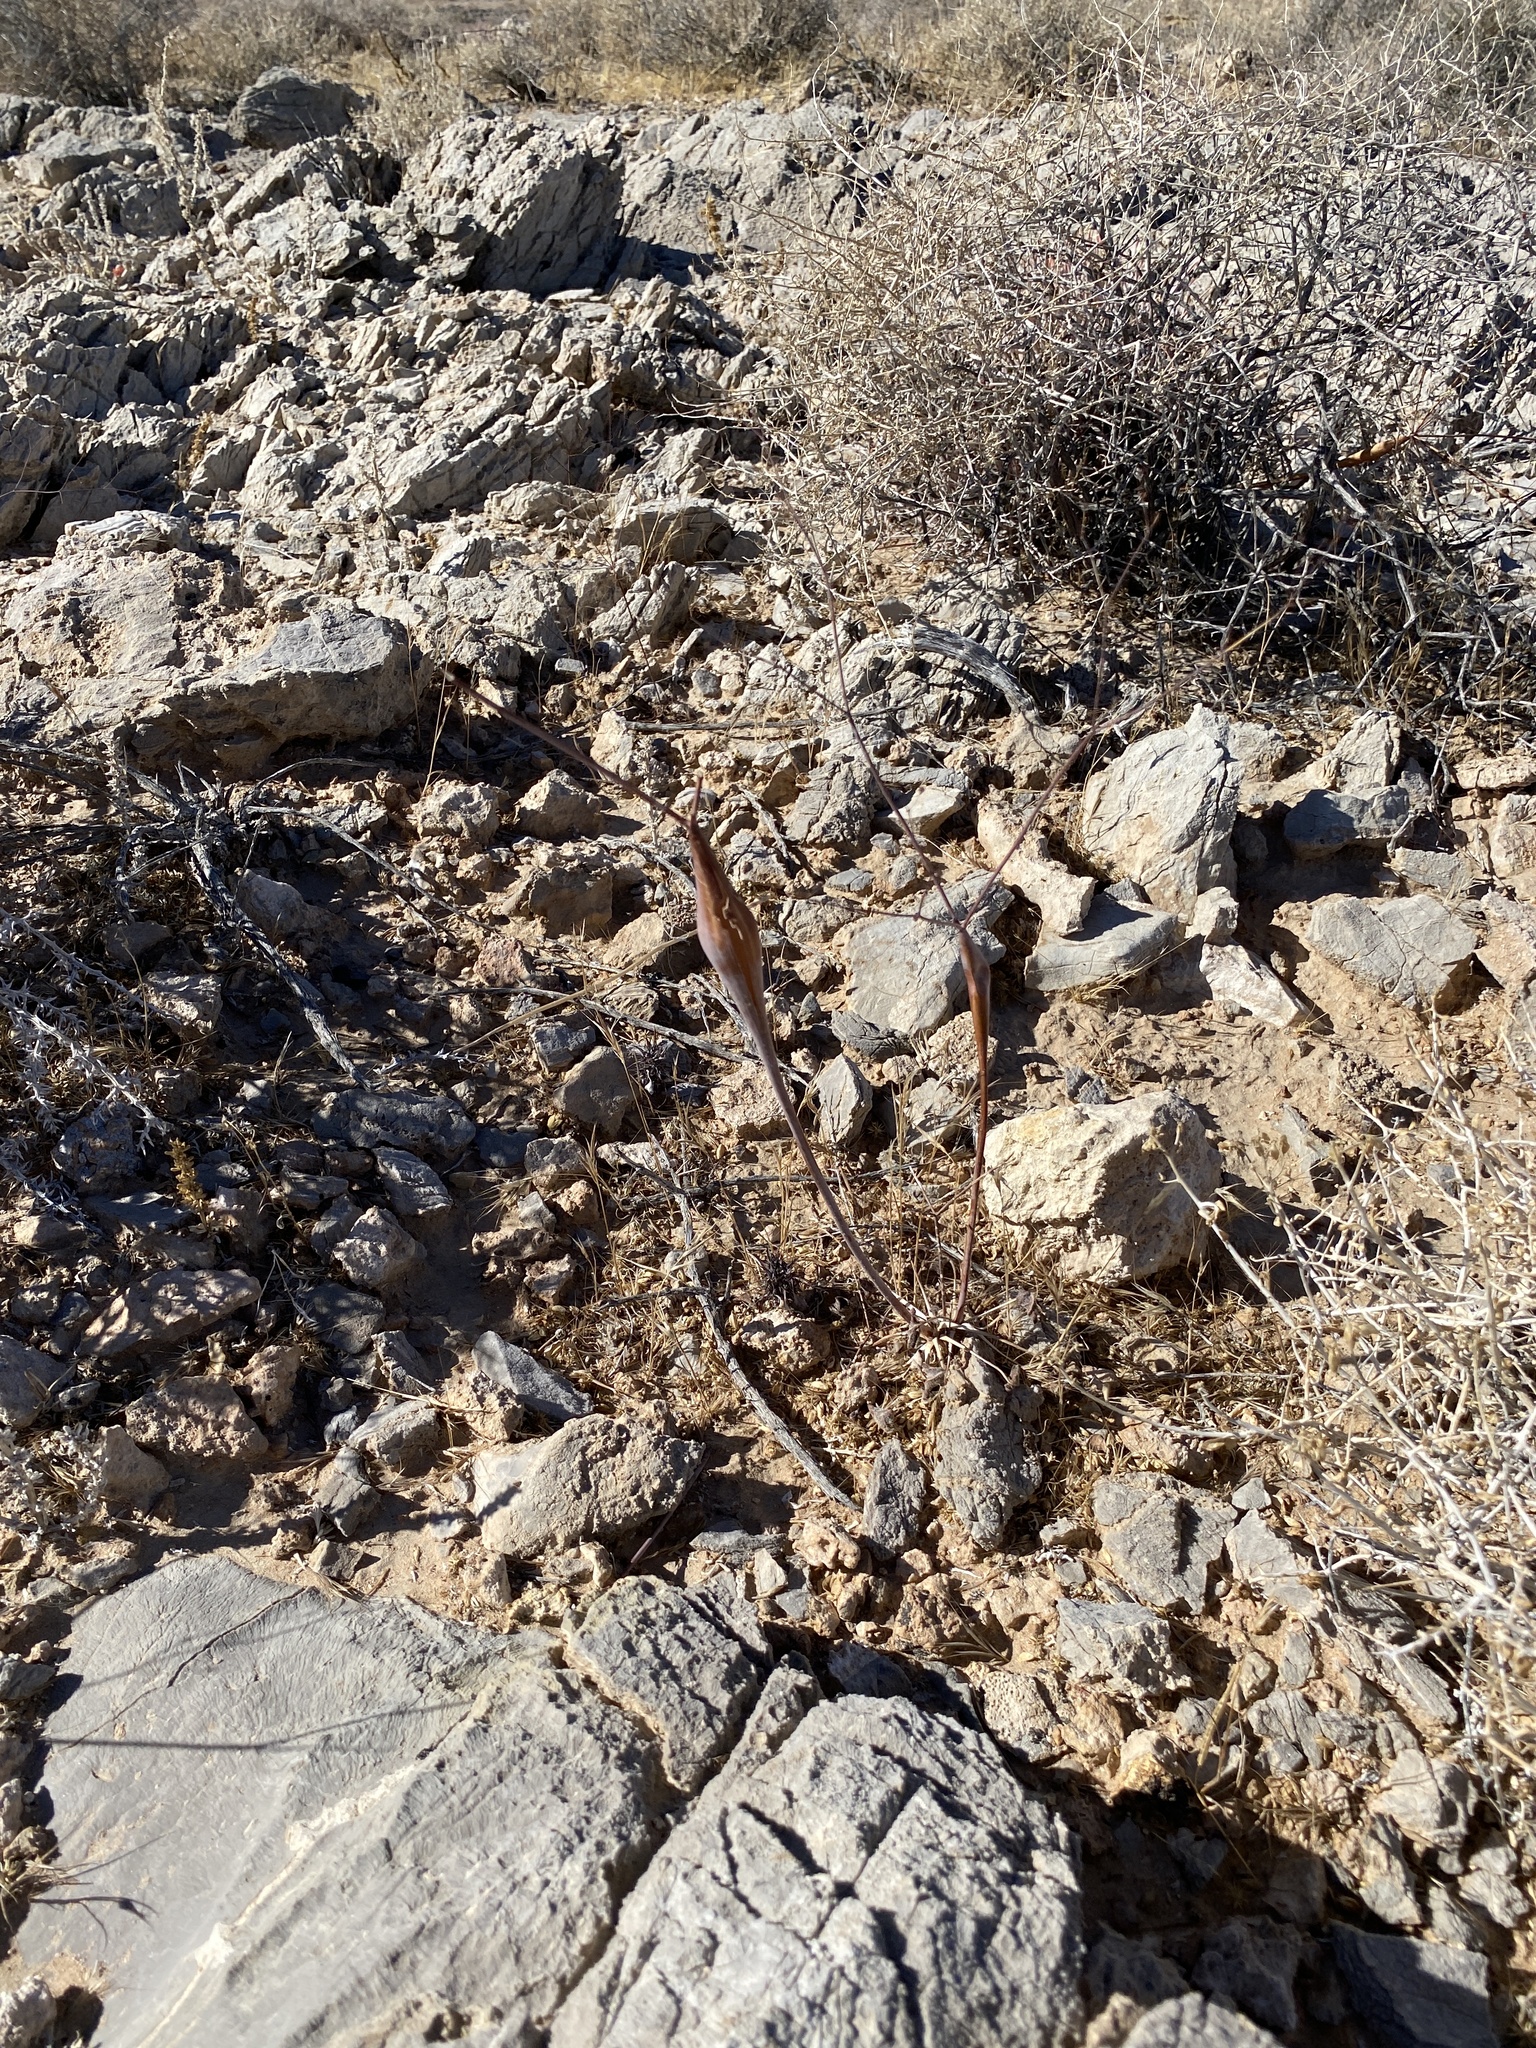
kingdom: Plantae
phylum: Tracheophyta
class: Magnoliopsida
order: Caryophyllales
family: Polygonaceae
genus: Eriogonum
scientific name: Eriogonum inflatum
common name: Desert trumpet
